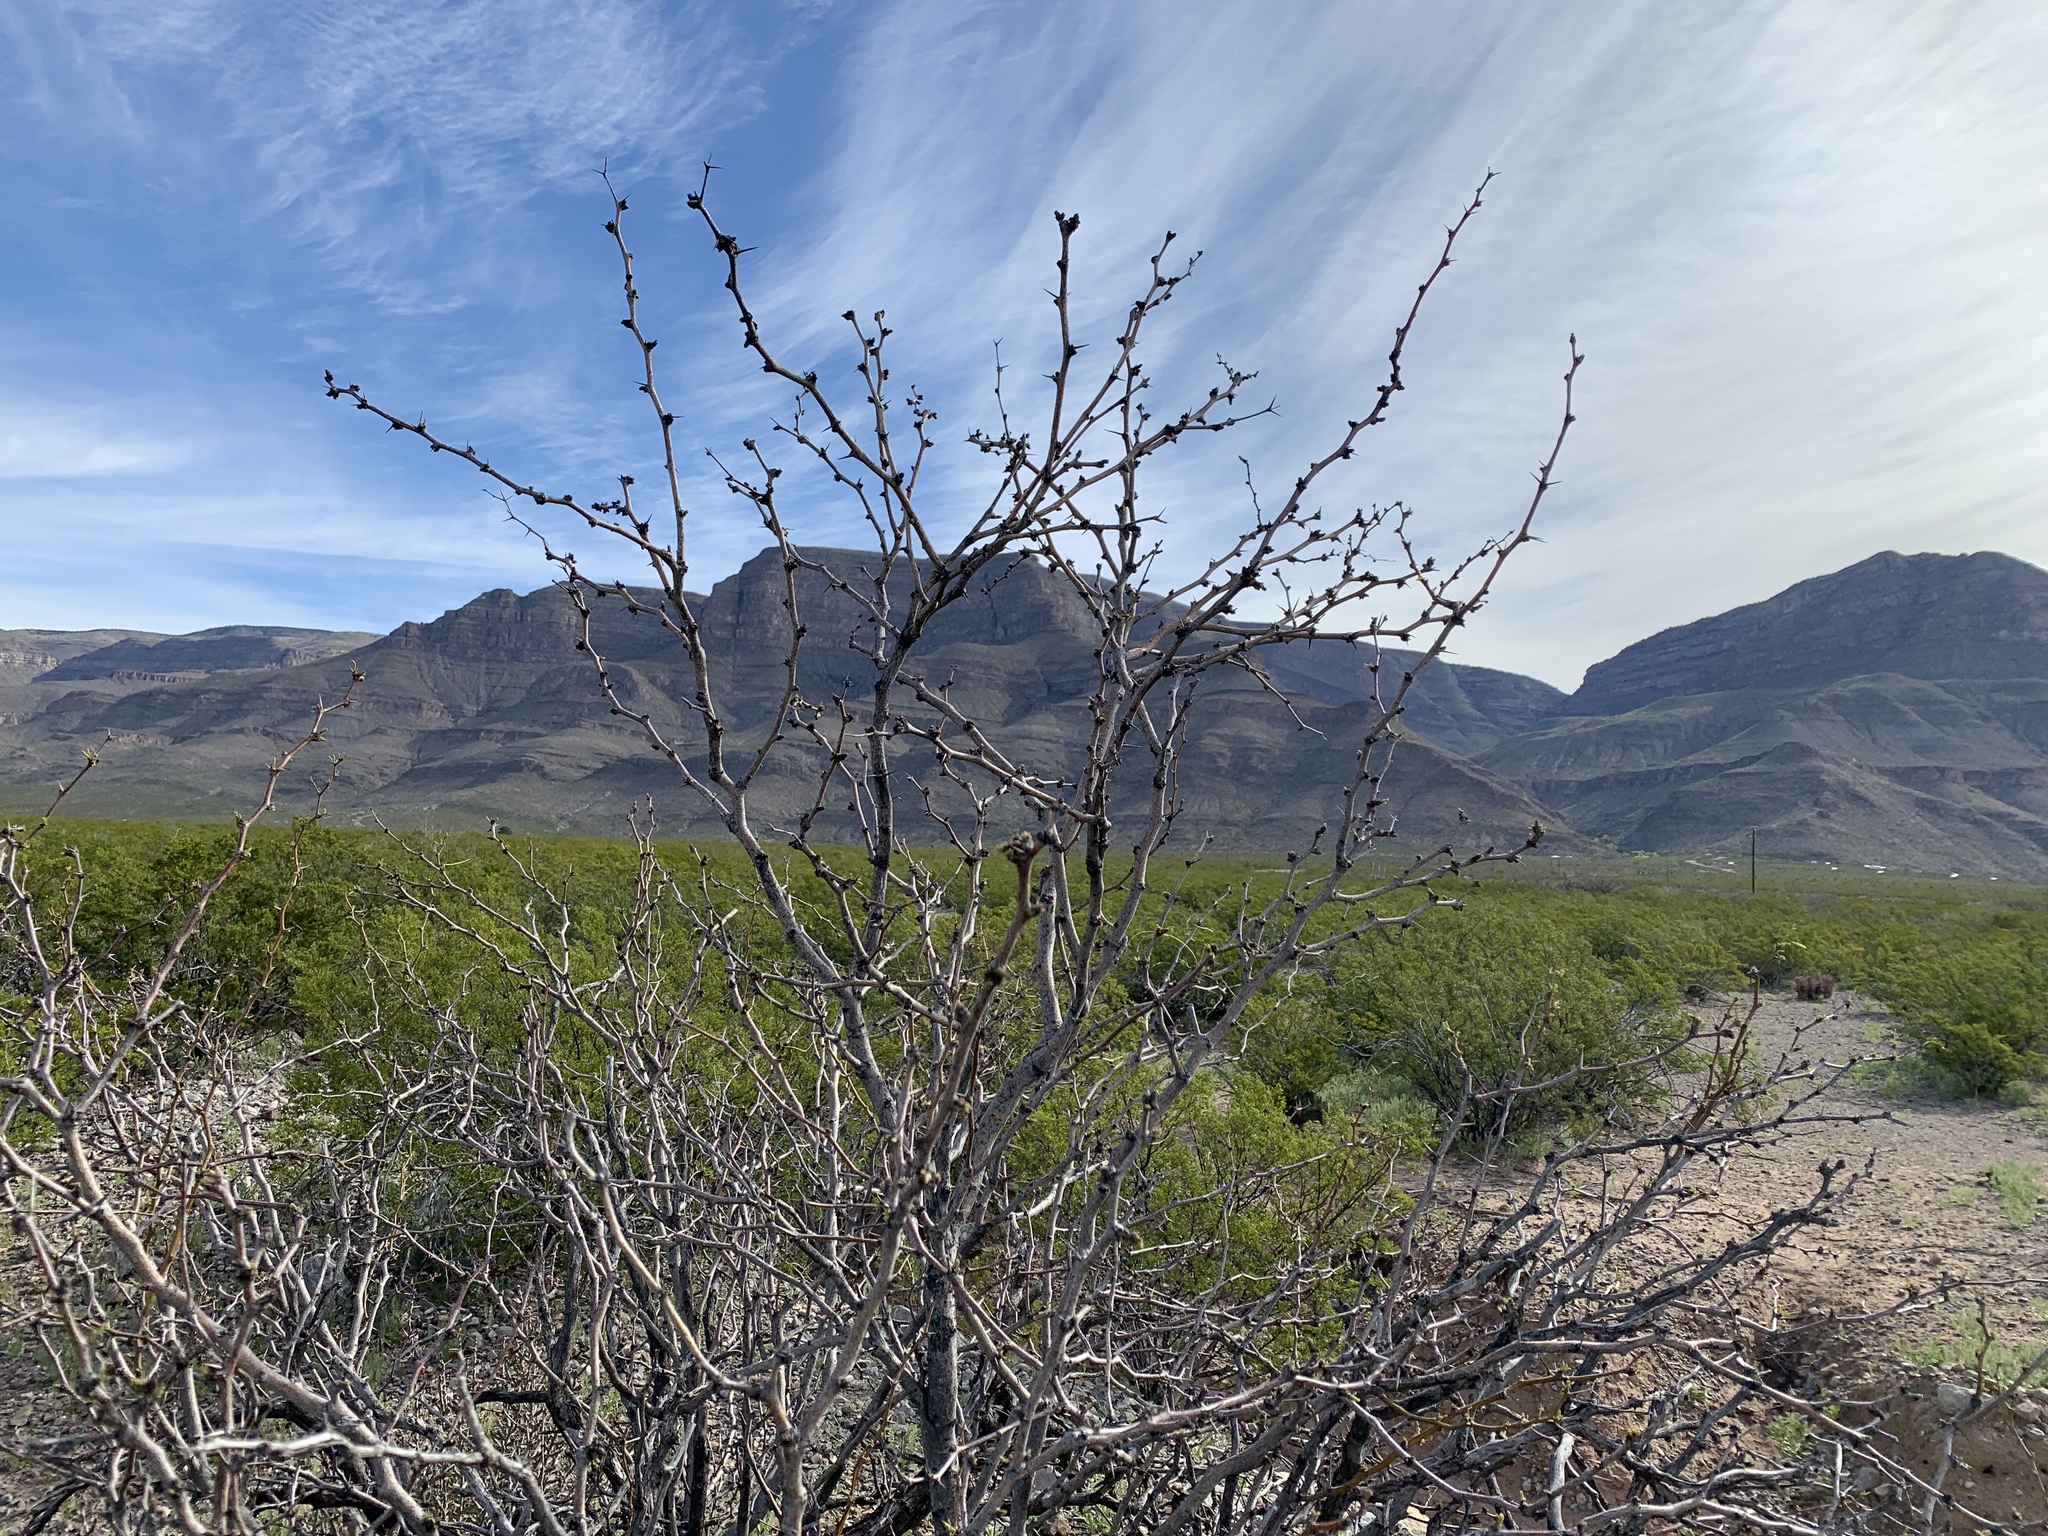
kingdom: Plantae
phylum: Tracheophyta
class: Magnoliopsida
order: Fabales
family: Fabaceae
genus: Prosopis
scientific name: Prosopis glandulosa
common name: Honey mesquite
